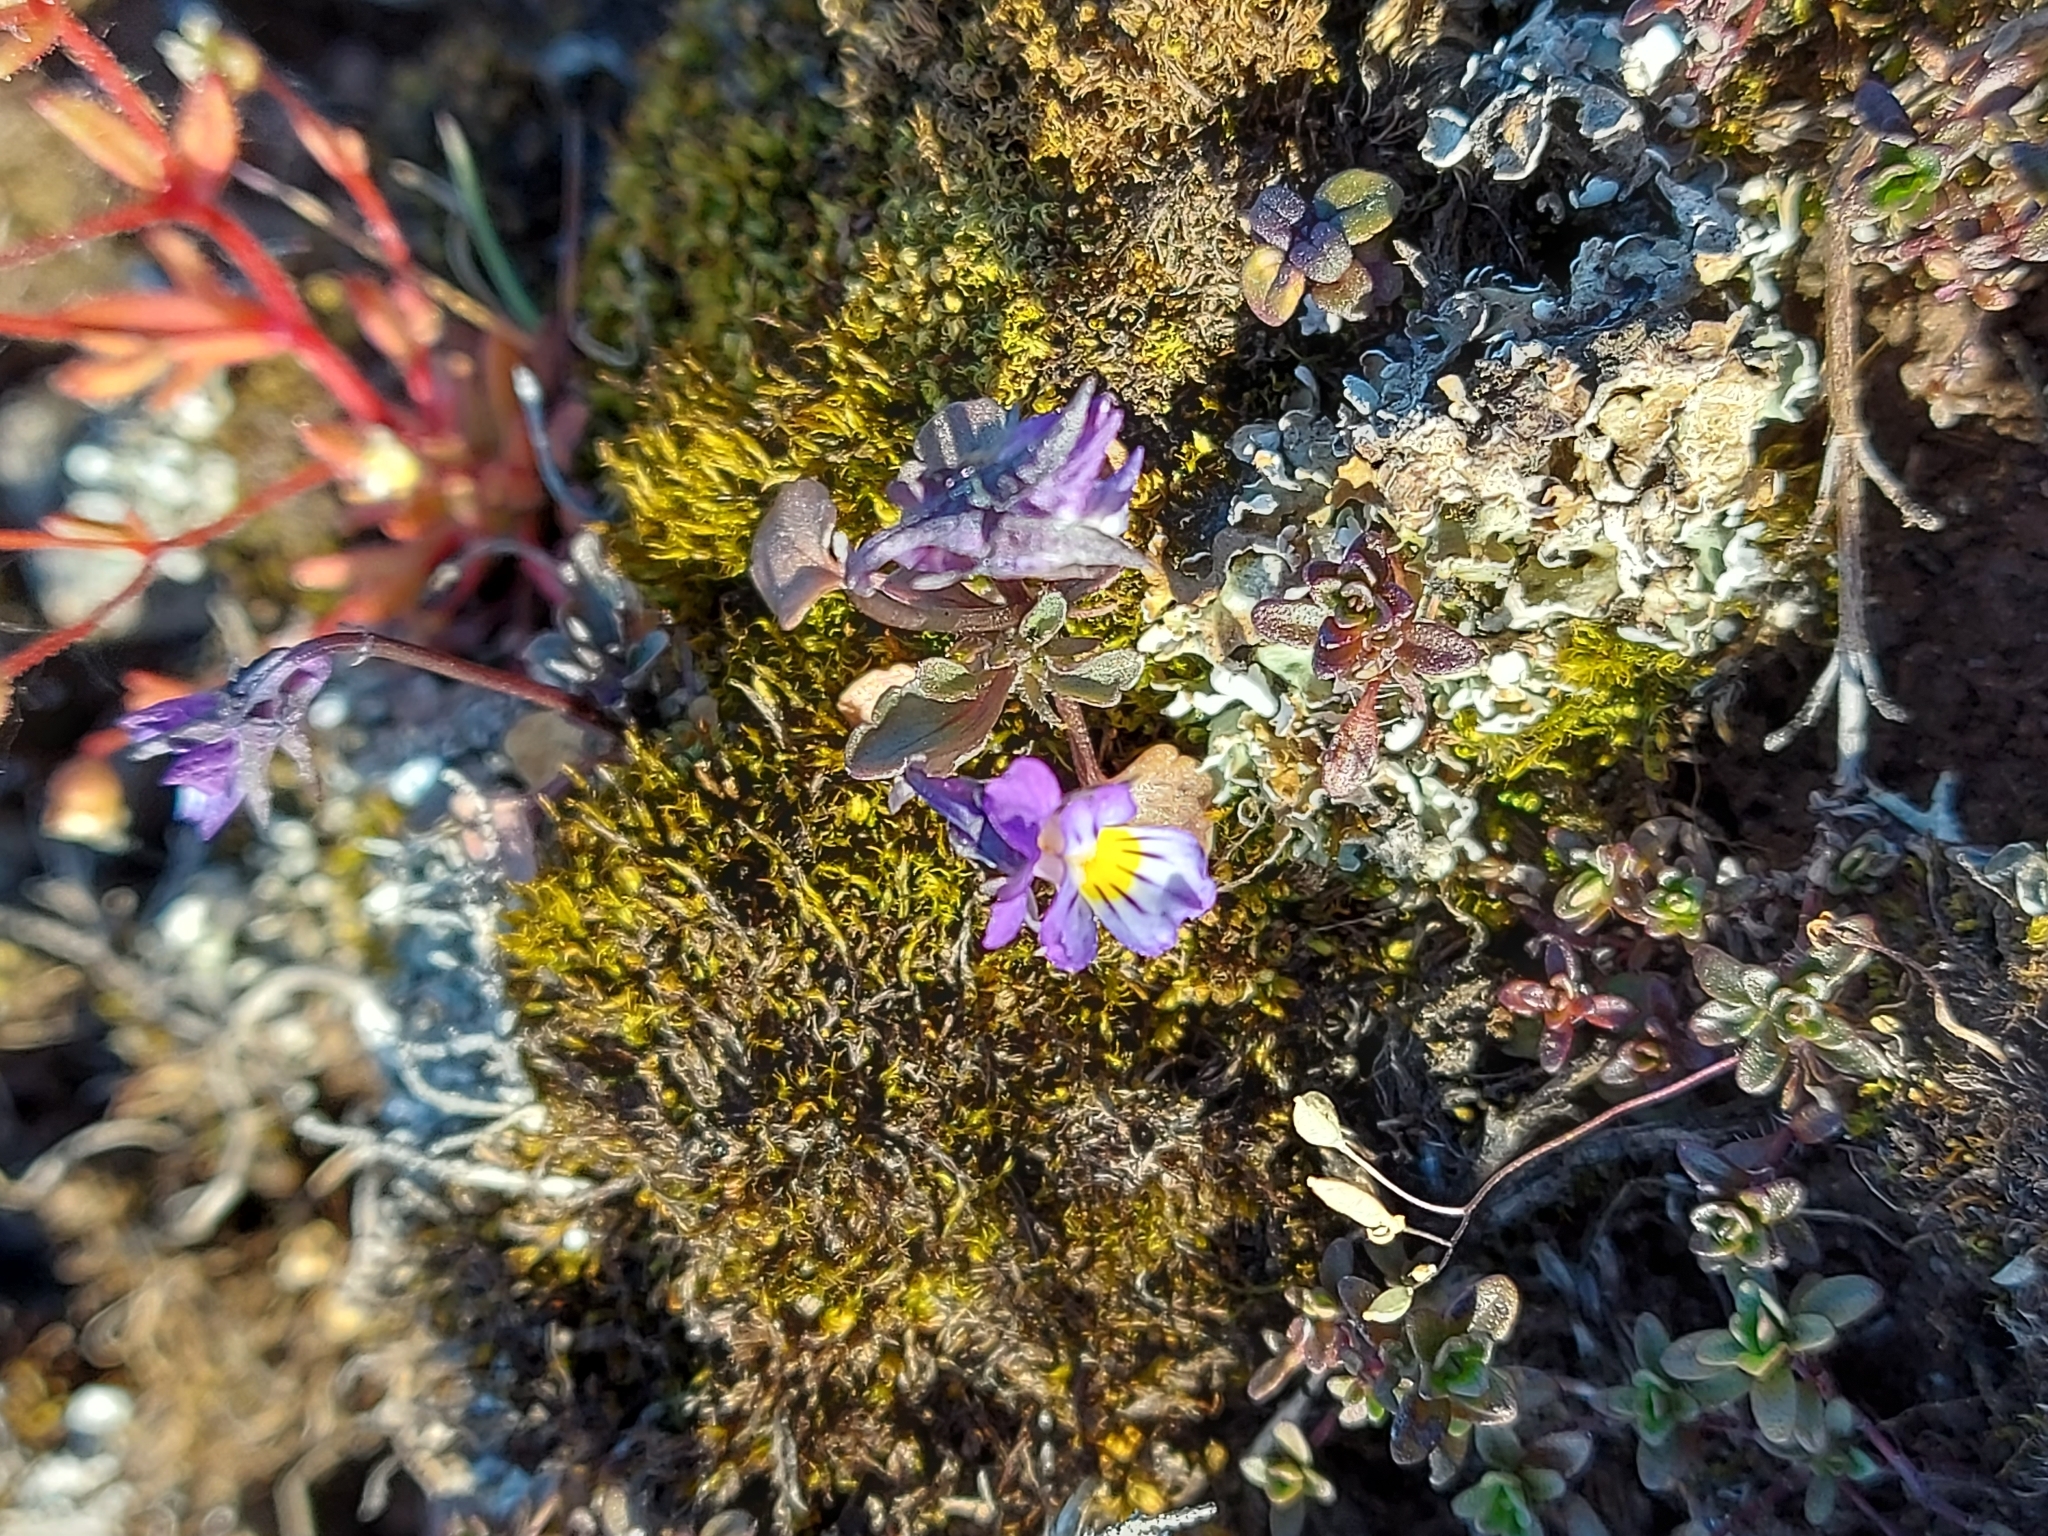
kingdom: Plantae
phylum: Tracheophyta
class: Magnoliopsida
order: Malpighiales
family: Violaceae
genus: Viola
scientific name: Viola tricolor
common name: Pansy
